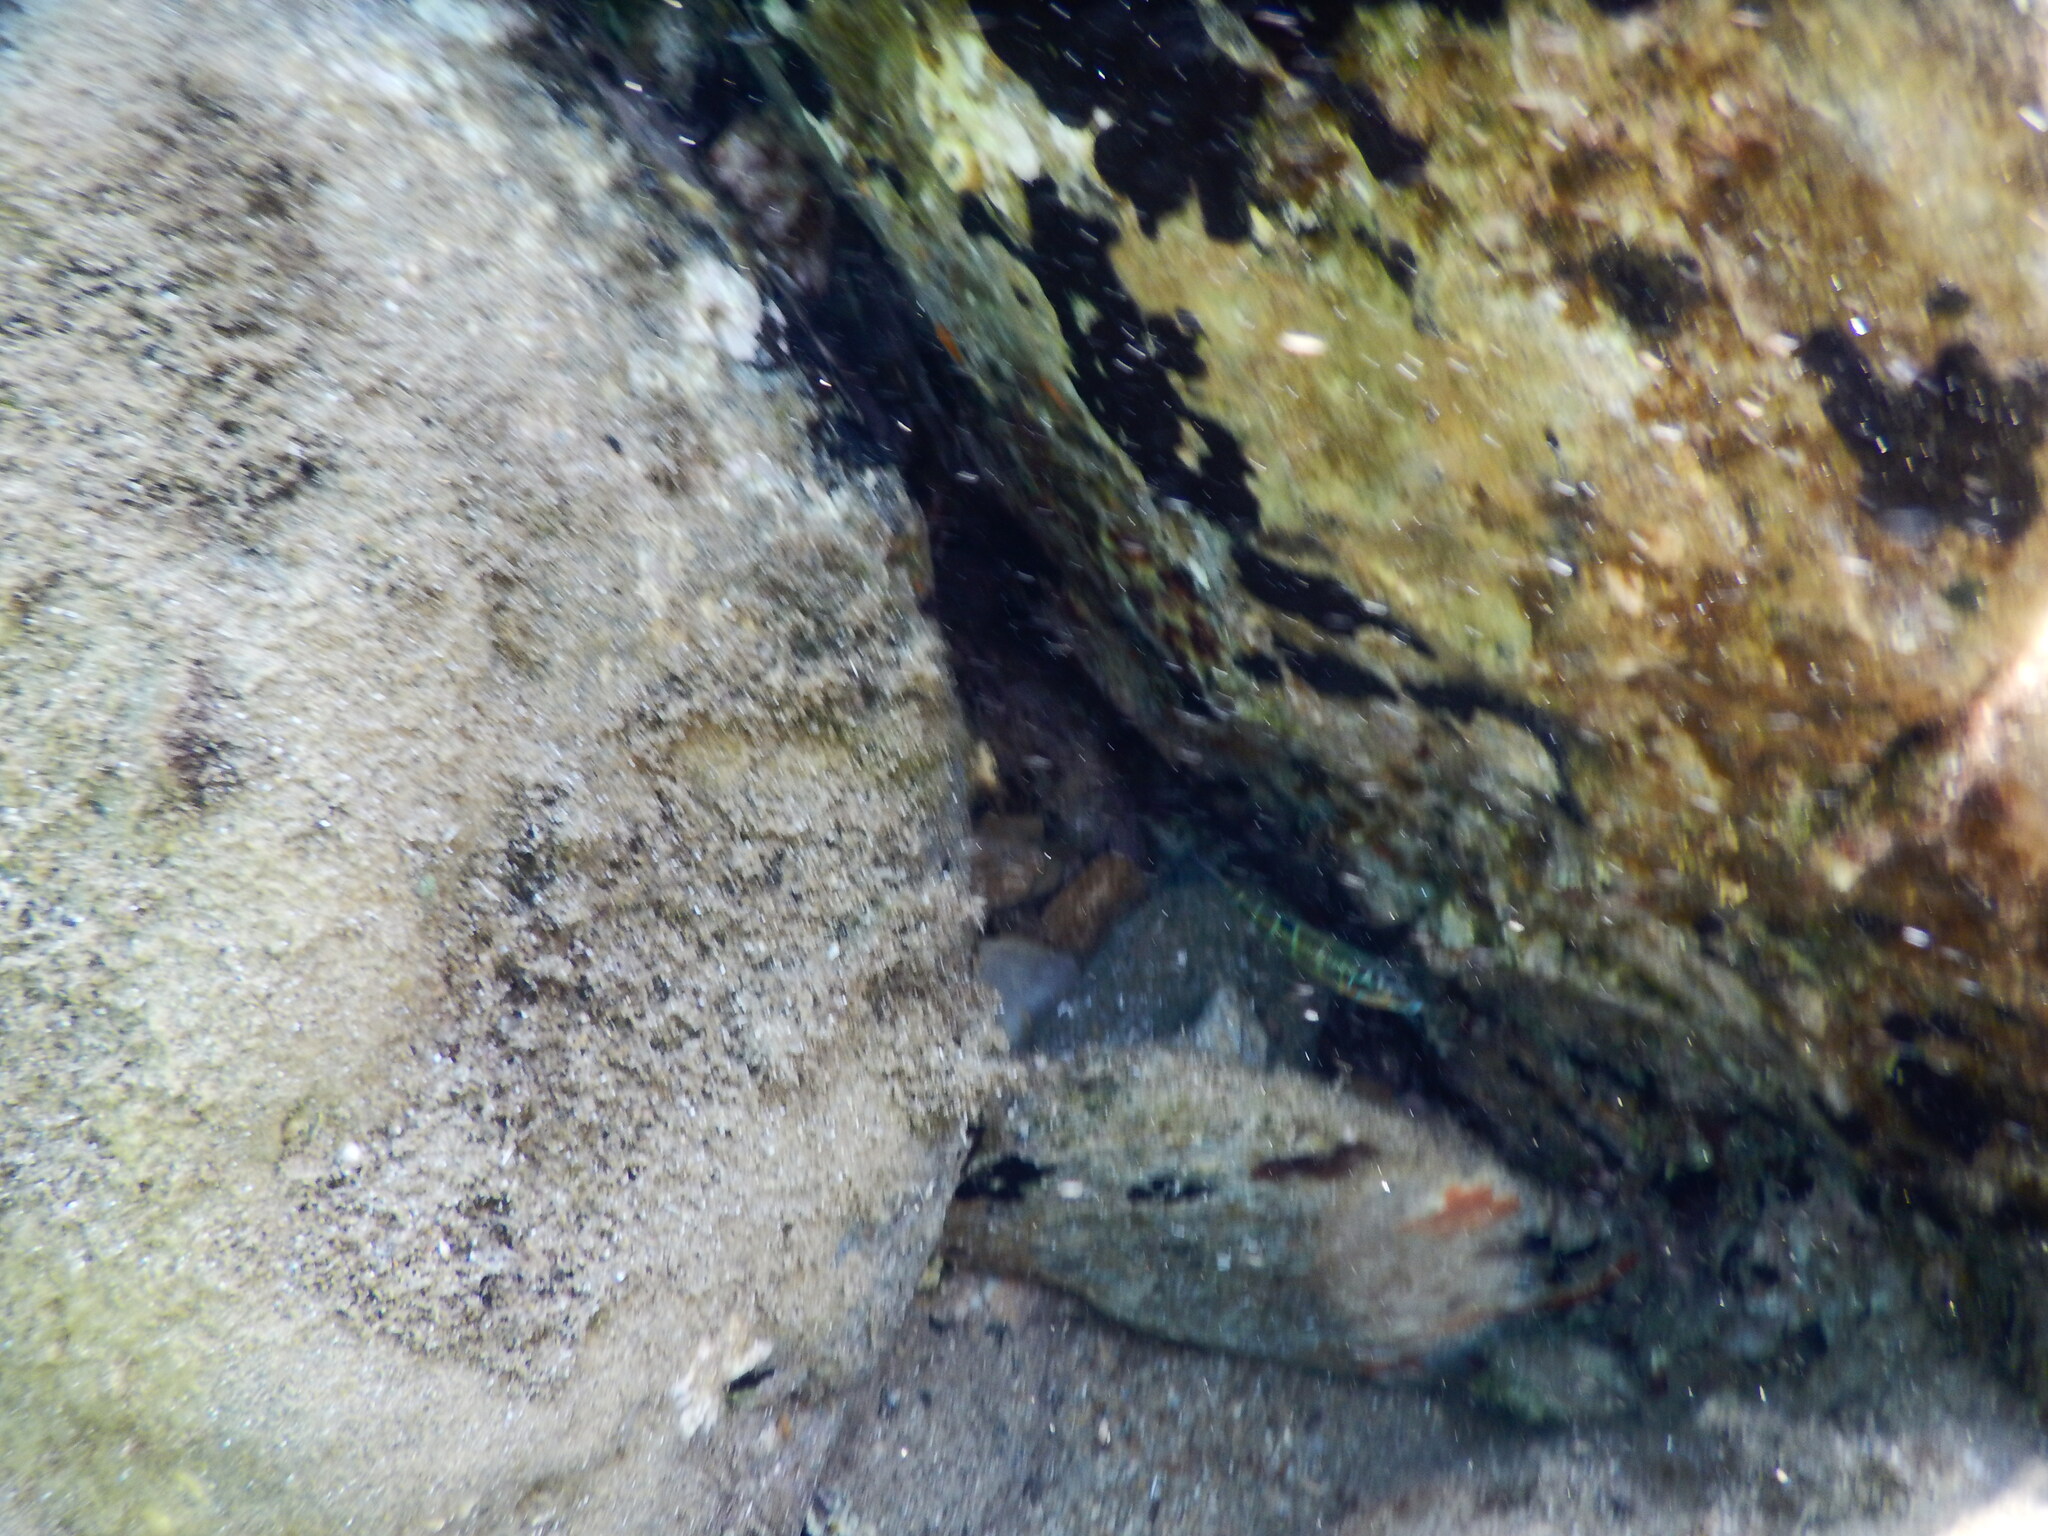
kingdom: Animalia
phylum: Chordata
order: Perciformes
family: Labridae
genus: Thalassoma
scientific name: Thalassoma pavo
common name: Ornate wrasse
